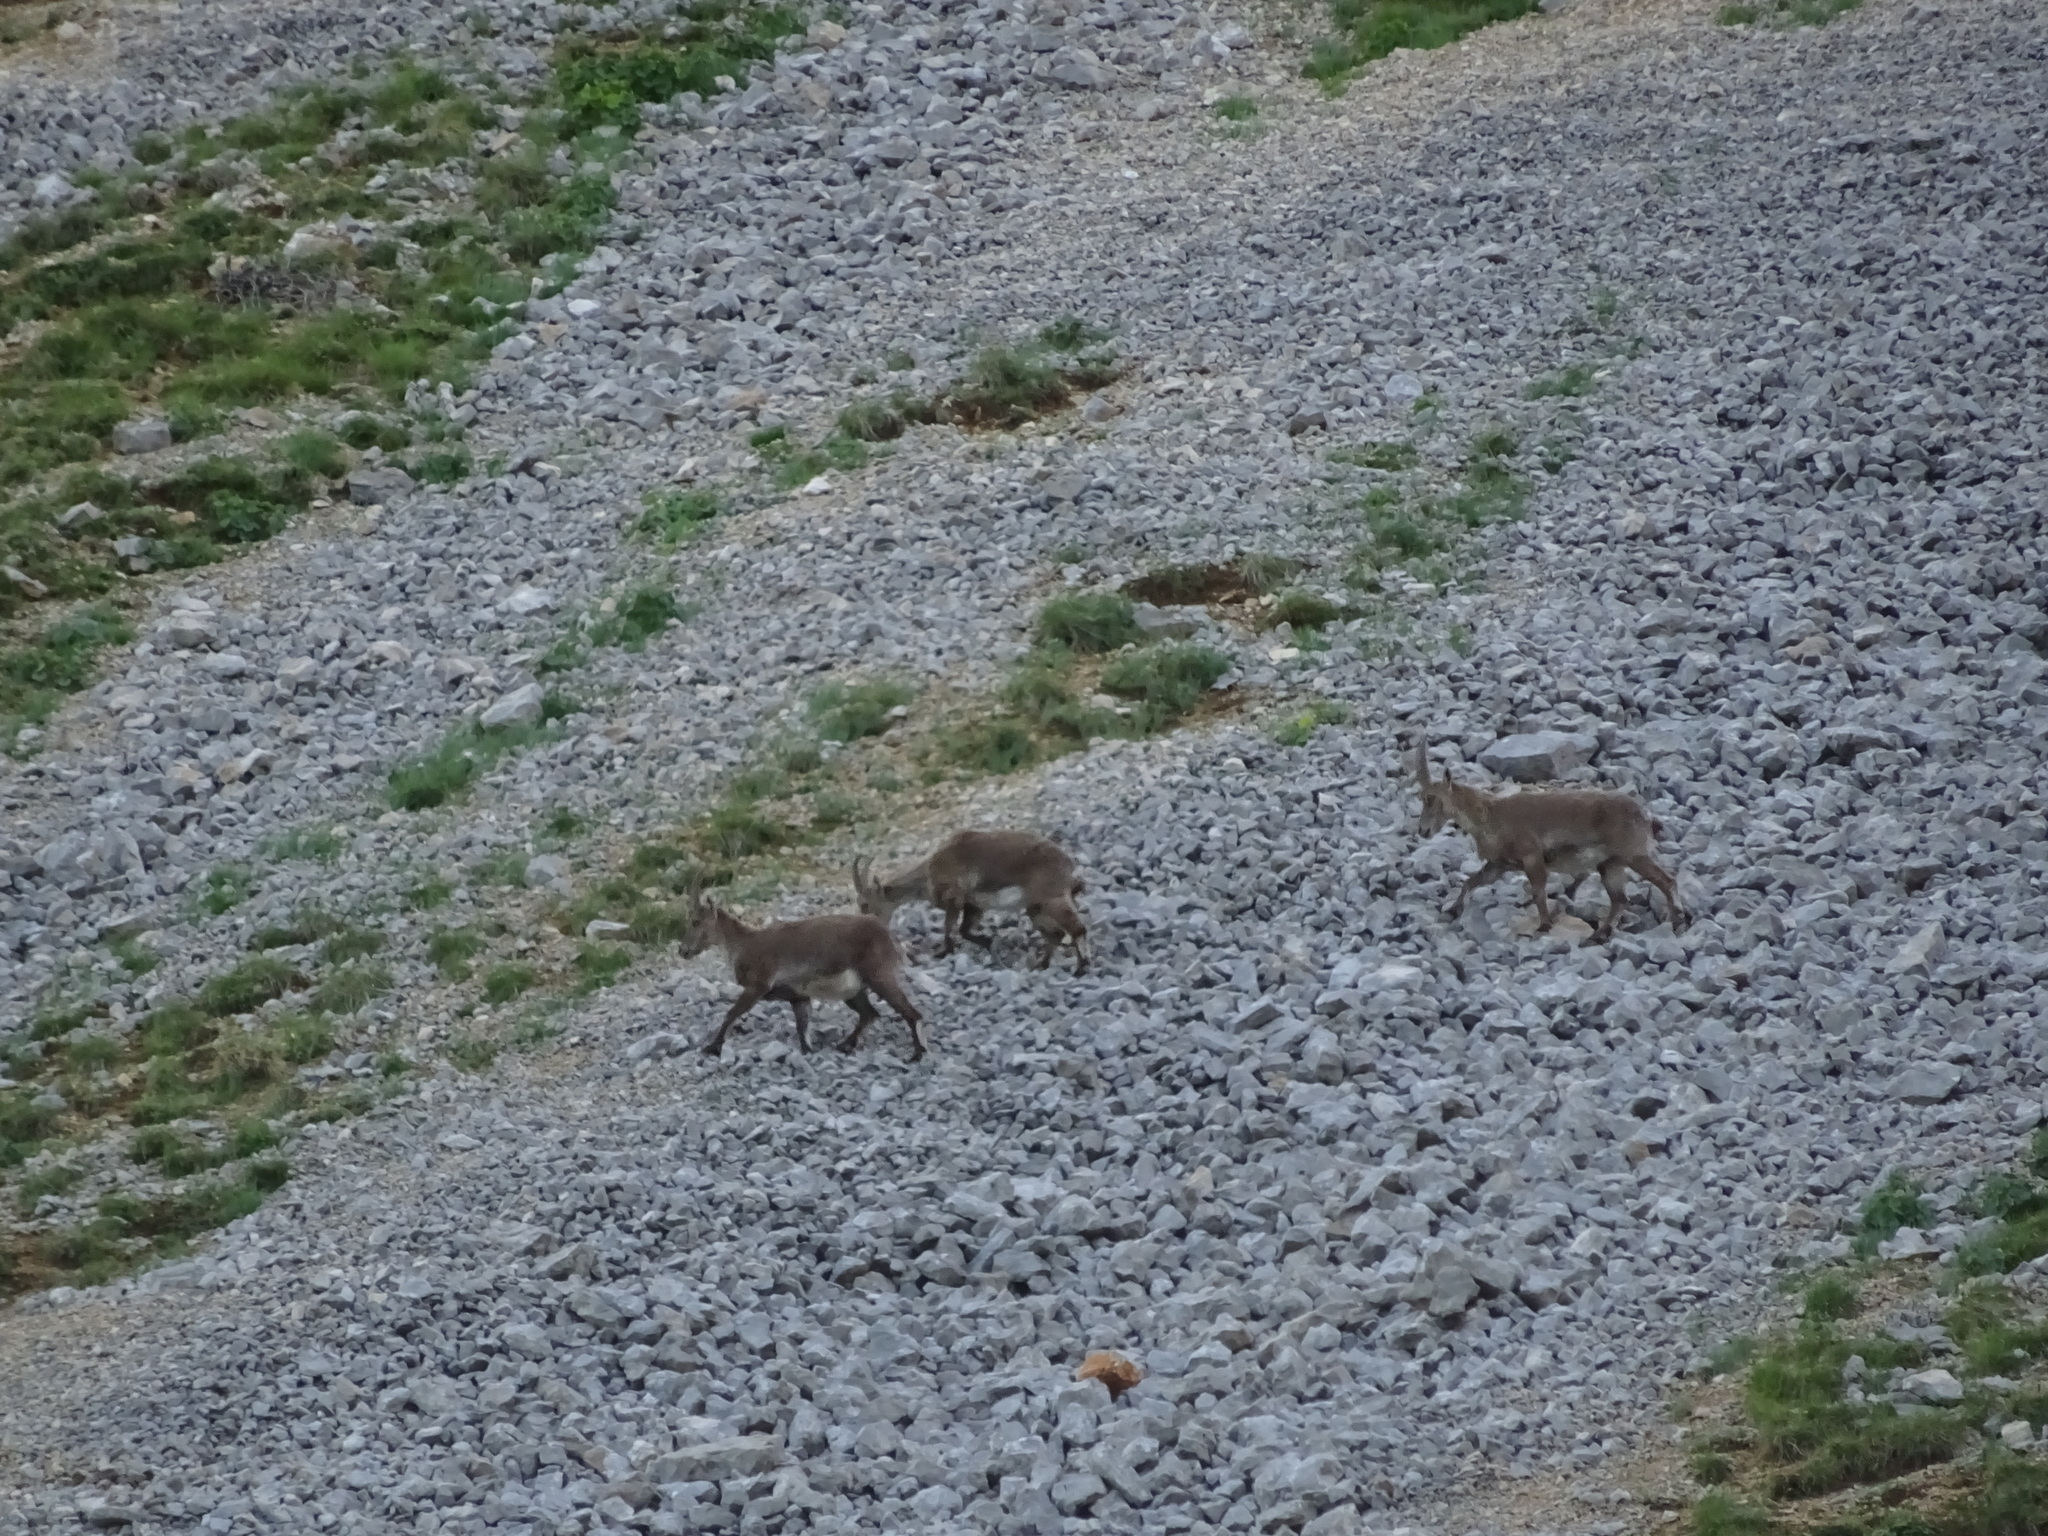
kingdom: Animalia
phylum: Chordata
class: Mammalia
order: Artiodactyla
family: Bovidae
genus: Capra
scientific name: Capra ibex
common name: Alpine ibex
